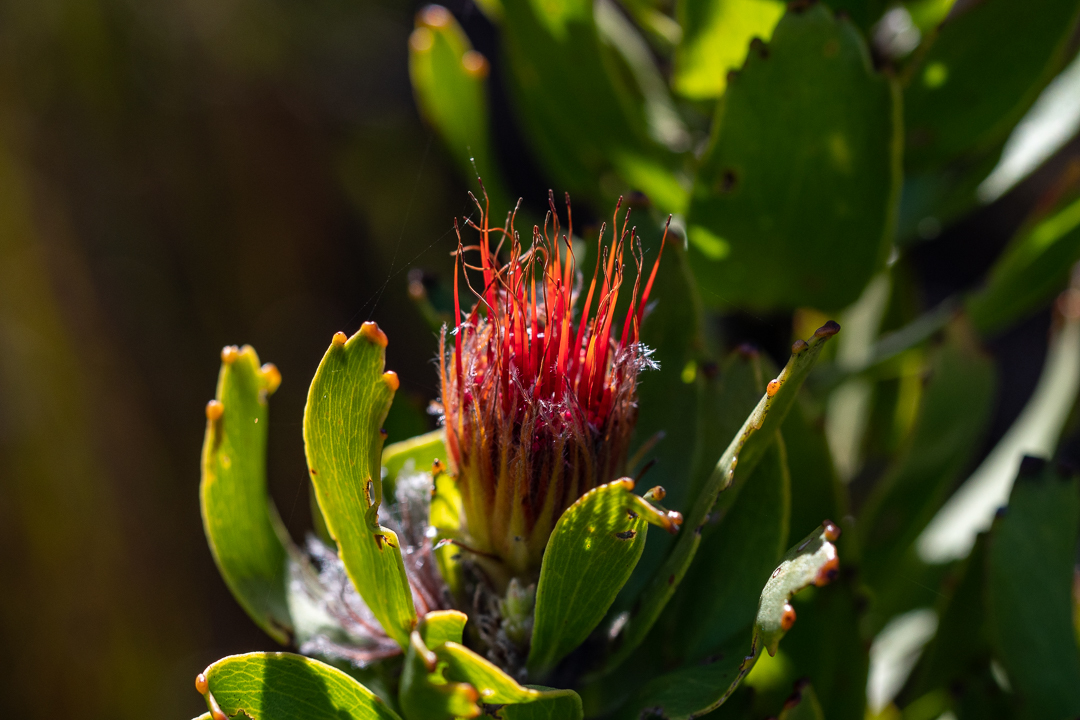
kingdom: Plantae
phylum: Tracheophyta
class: Magnoliopsida
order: Proteales
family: Proteaceae
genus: Leucospermum
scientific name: Leucospermum oleifolium
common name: Matches
